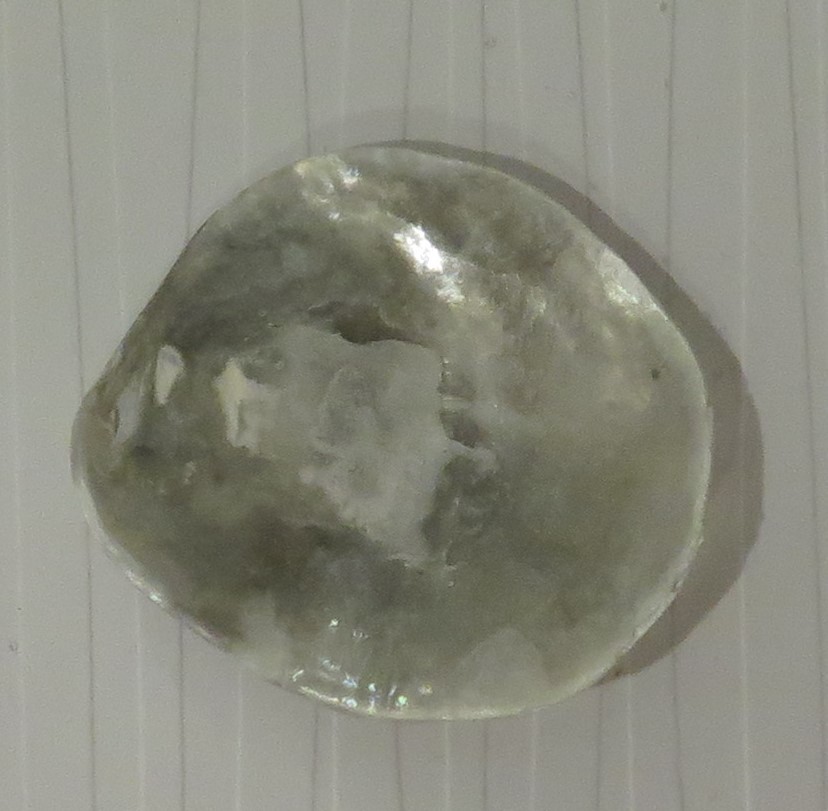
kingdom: Animalia
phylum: Mollusca
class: Bivalvia
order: Pectinida
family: Anomiidae
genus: Anomia
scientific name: Anomia simplex
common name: Common jingle shell
